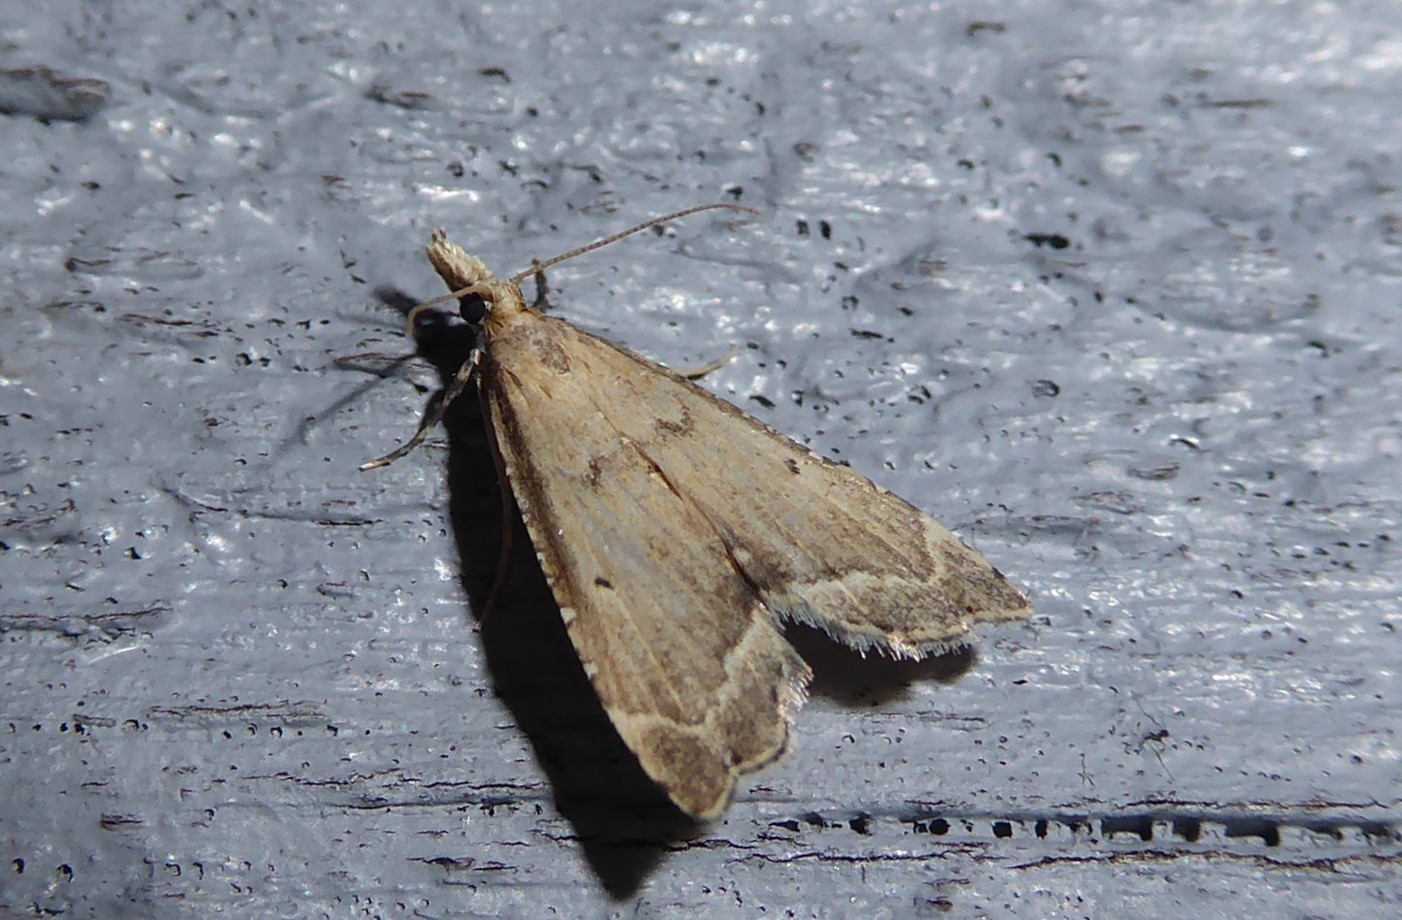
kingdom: Animalia
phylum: Arthropoda
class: Insecta
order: Lepidoptera
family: Crambidae
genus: Diplopseustis
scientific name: Diplopseustis perieresalis
